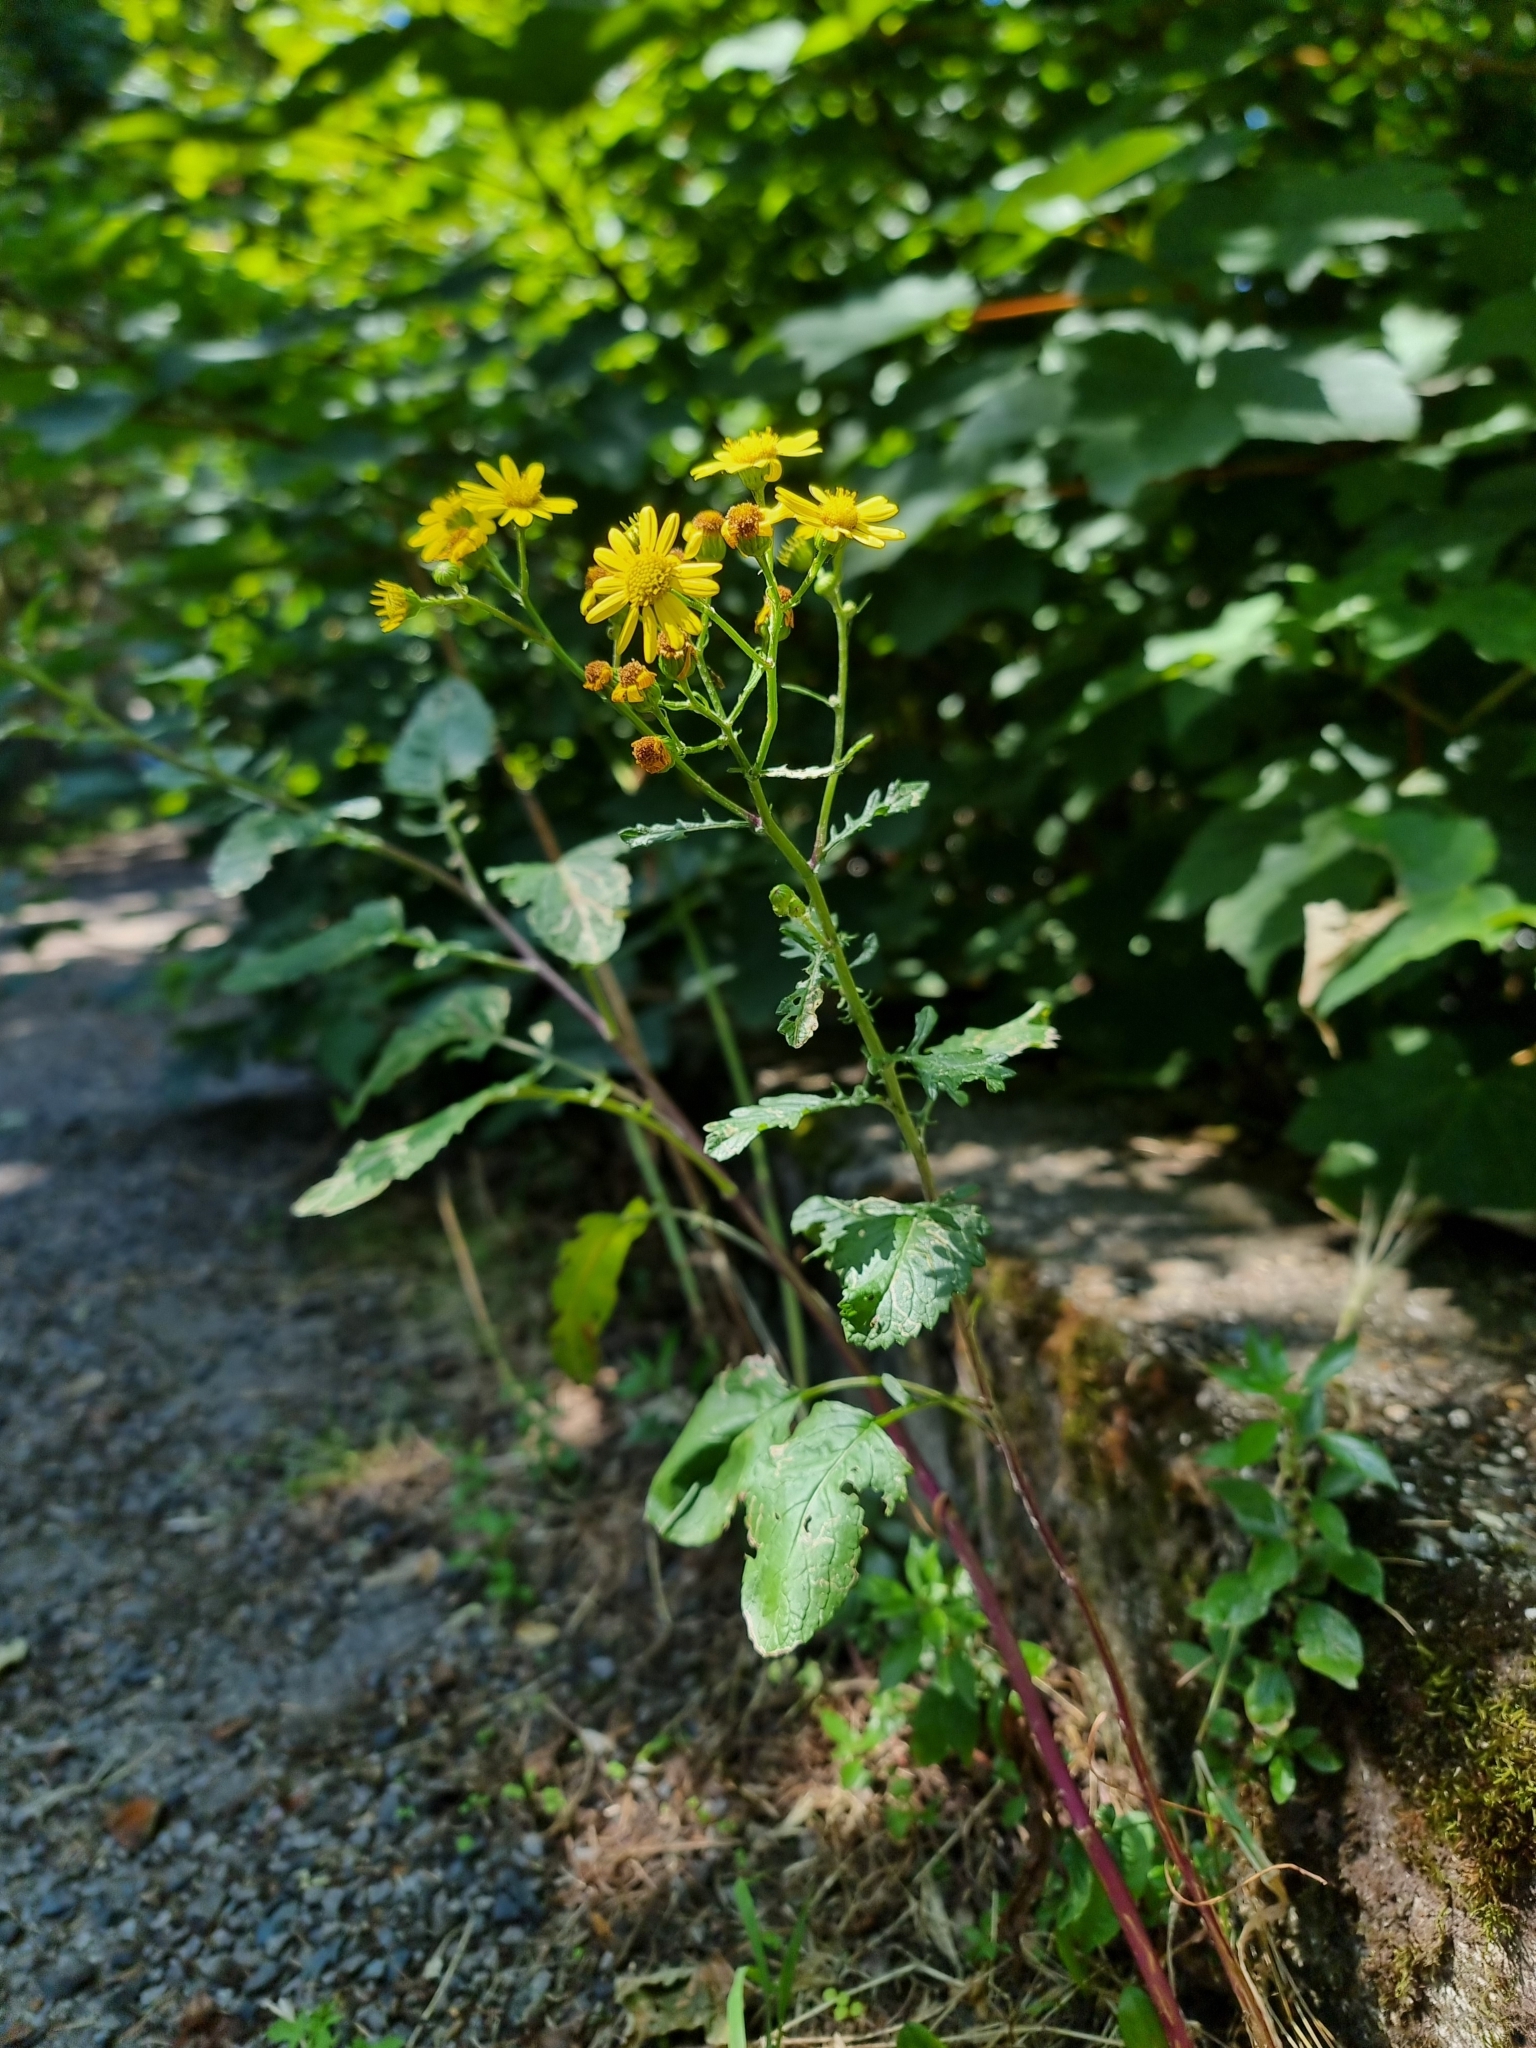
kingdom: Plantae
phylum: Tracheophyta
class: Magnoliopsida
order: Asterales
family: Asteraceae
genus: Jacobaea
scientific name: Jacobaea aquatica
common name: Water ragwort
